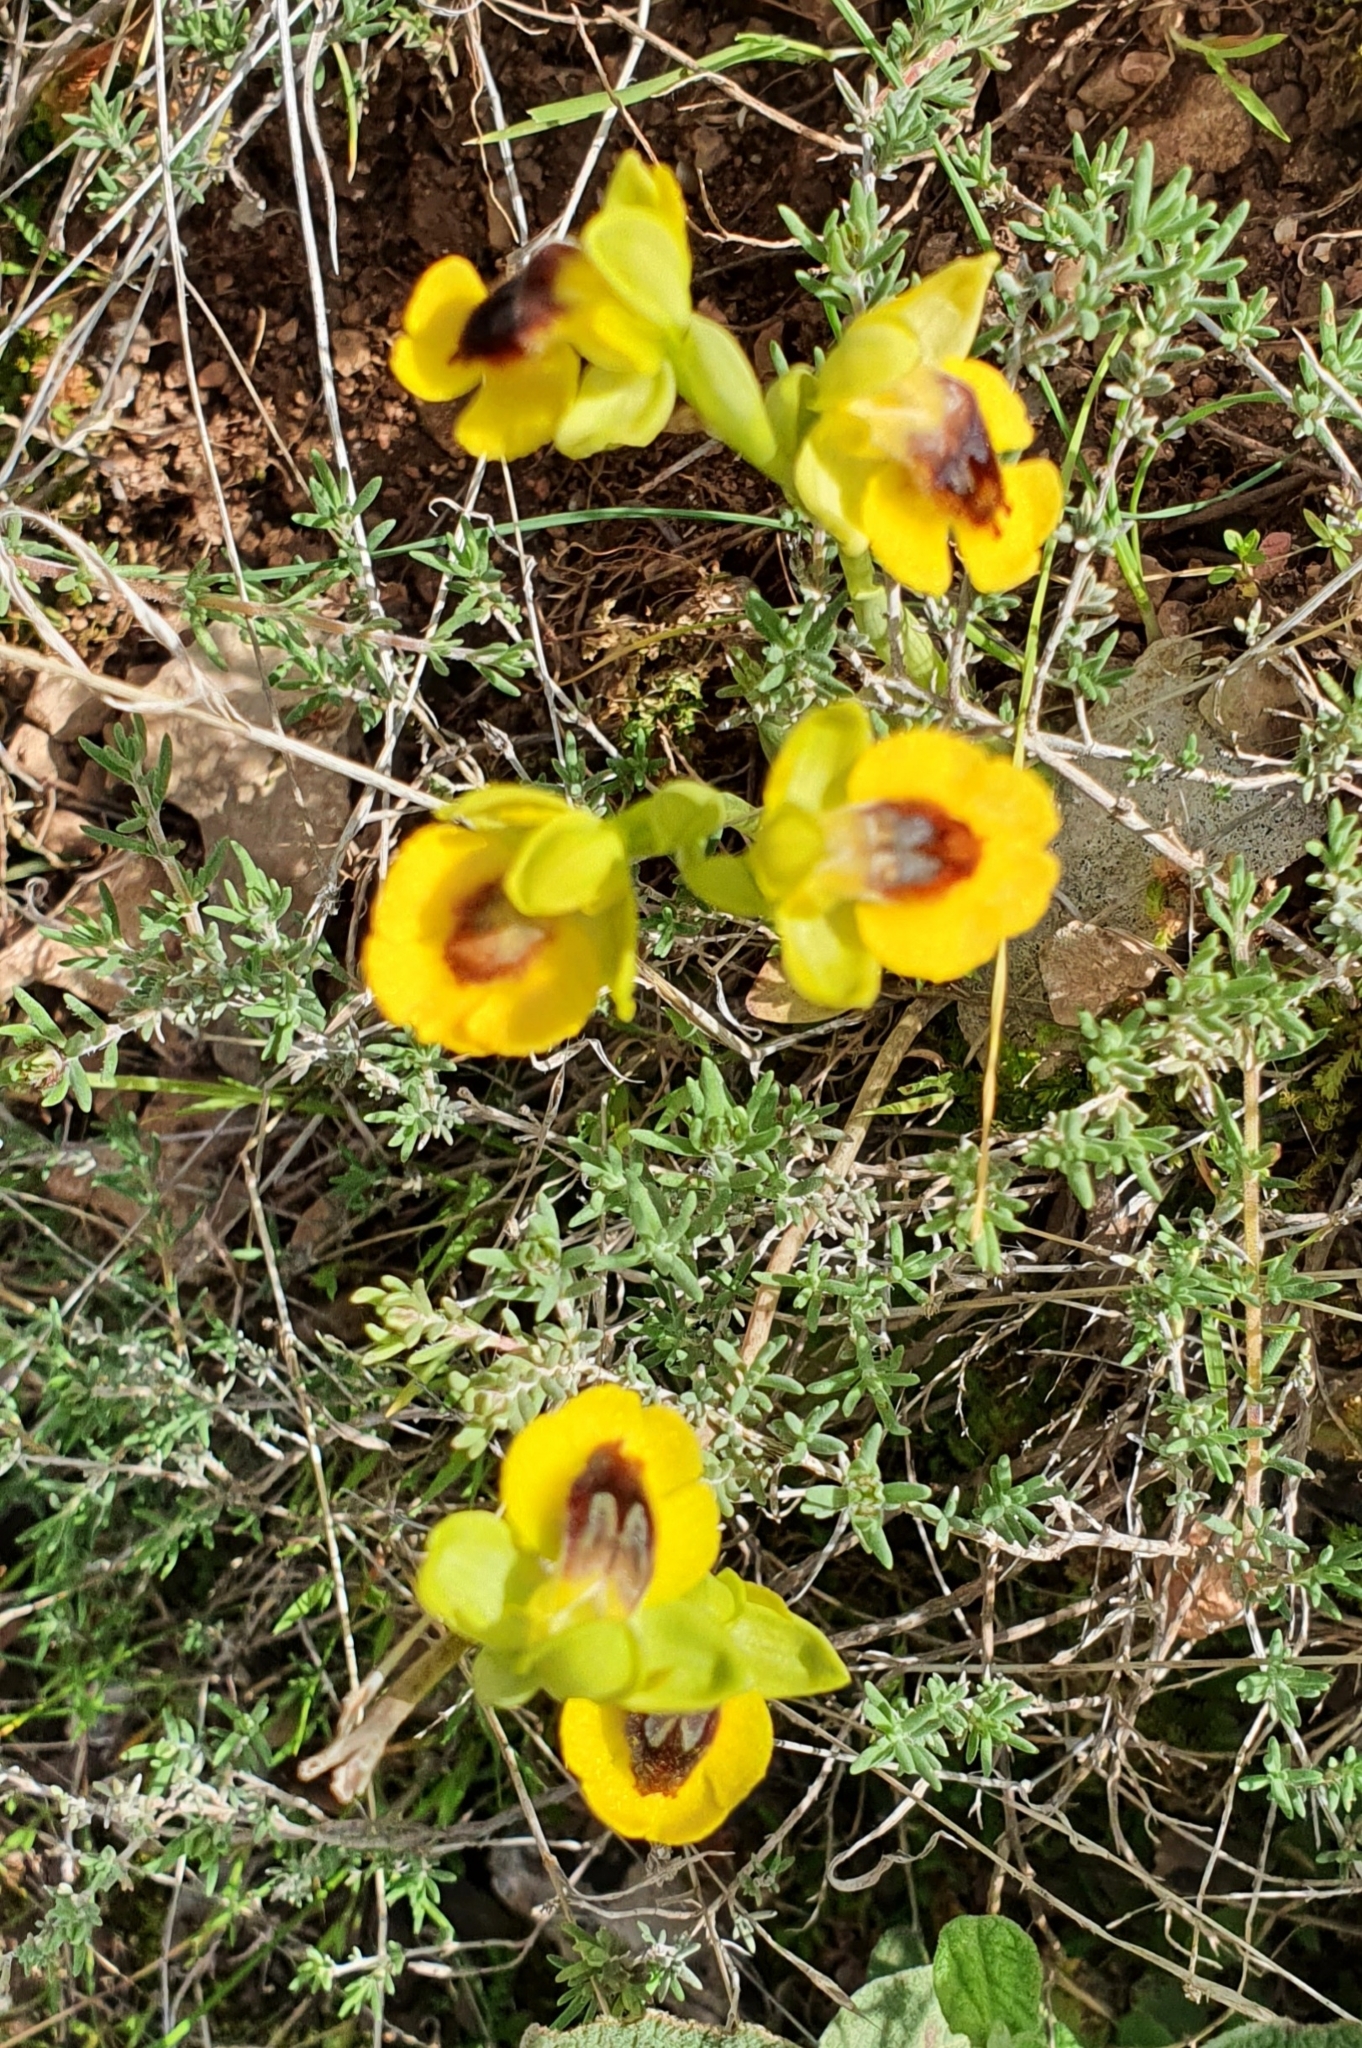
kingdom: Plantae
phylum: Tracheophyta
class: Liliopsida
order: Asparagales
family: Orchidaceae
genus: Ophrys
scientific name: Ophrys lutea
